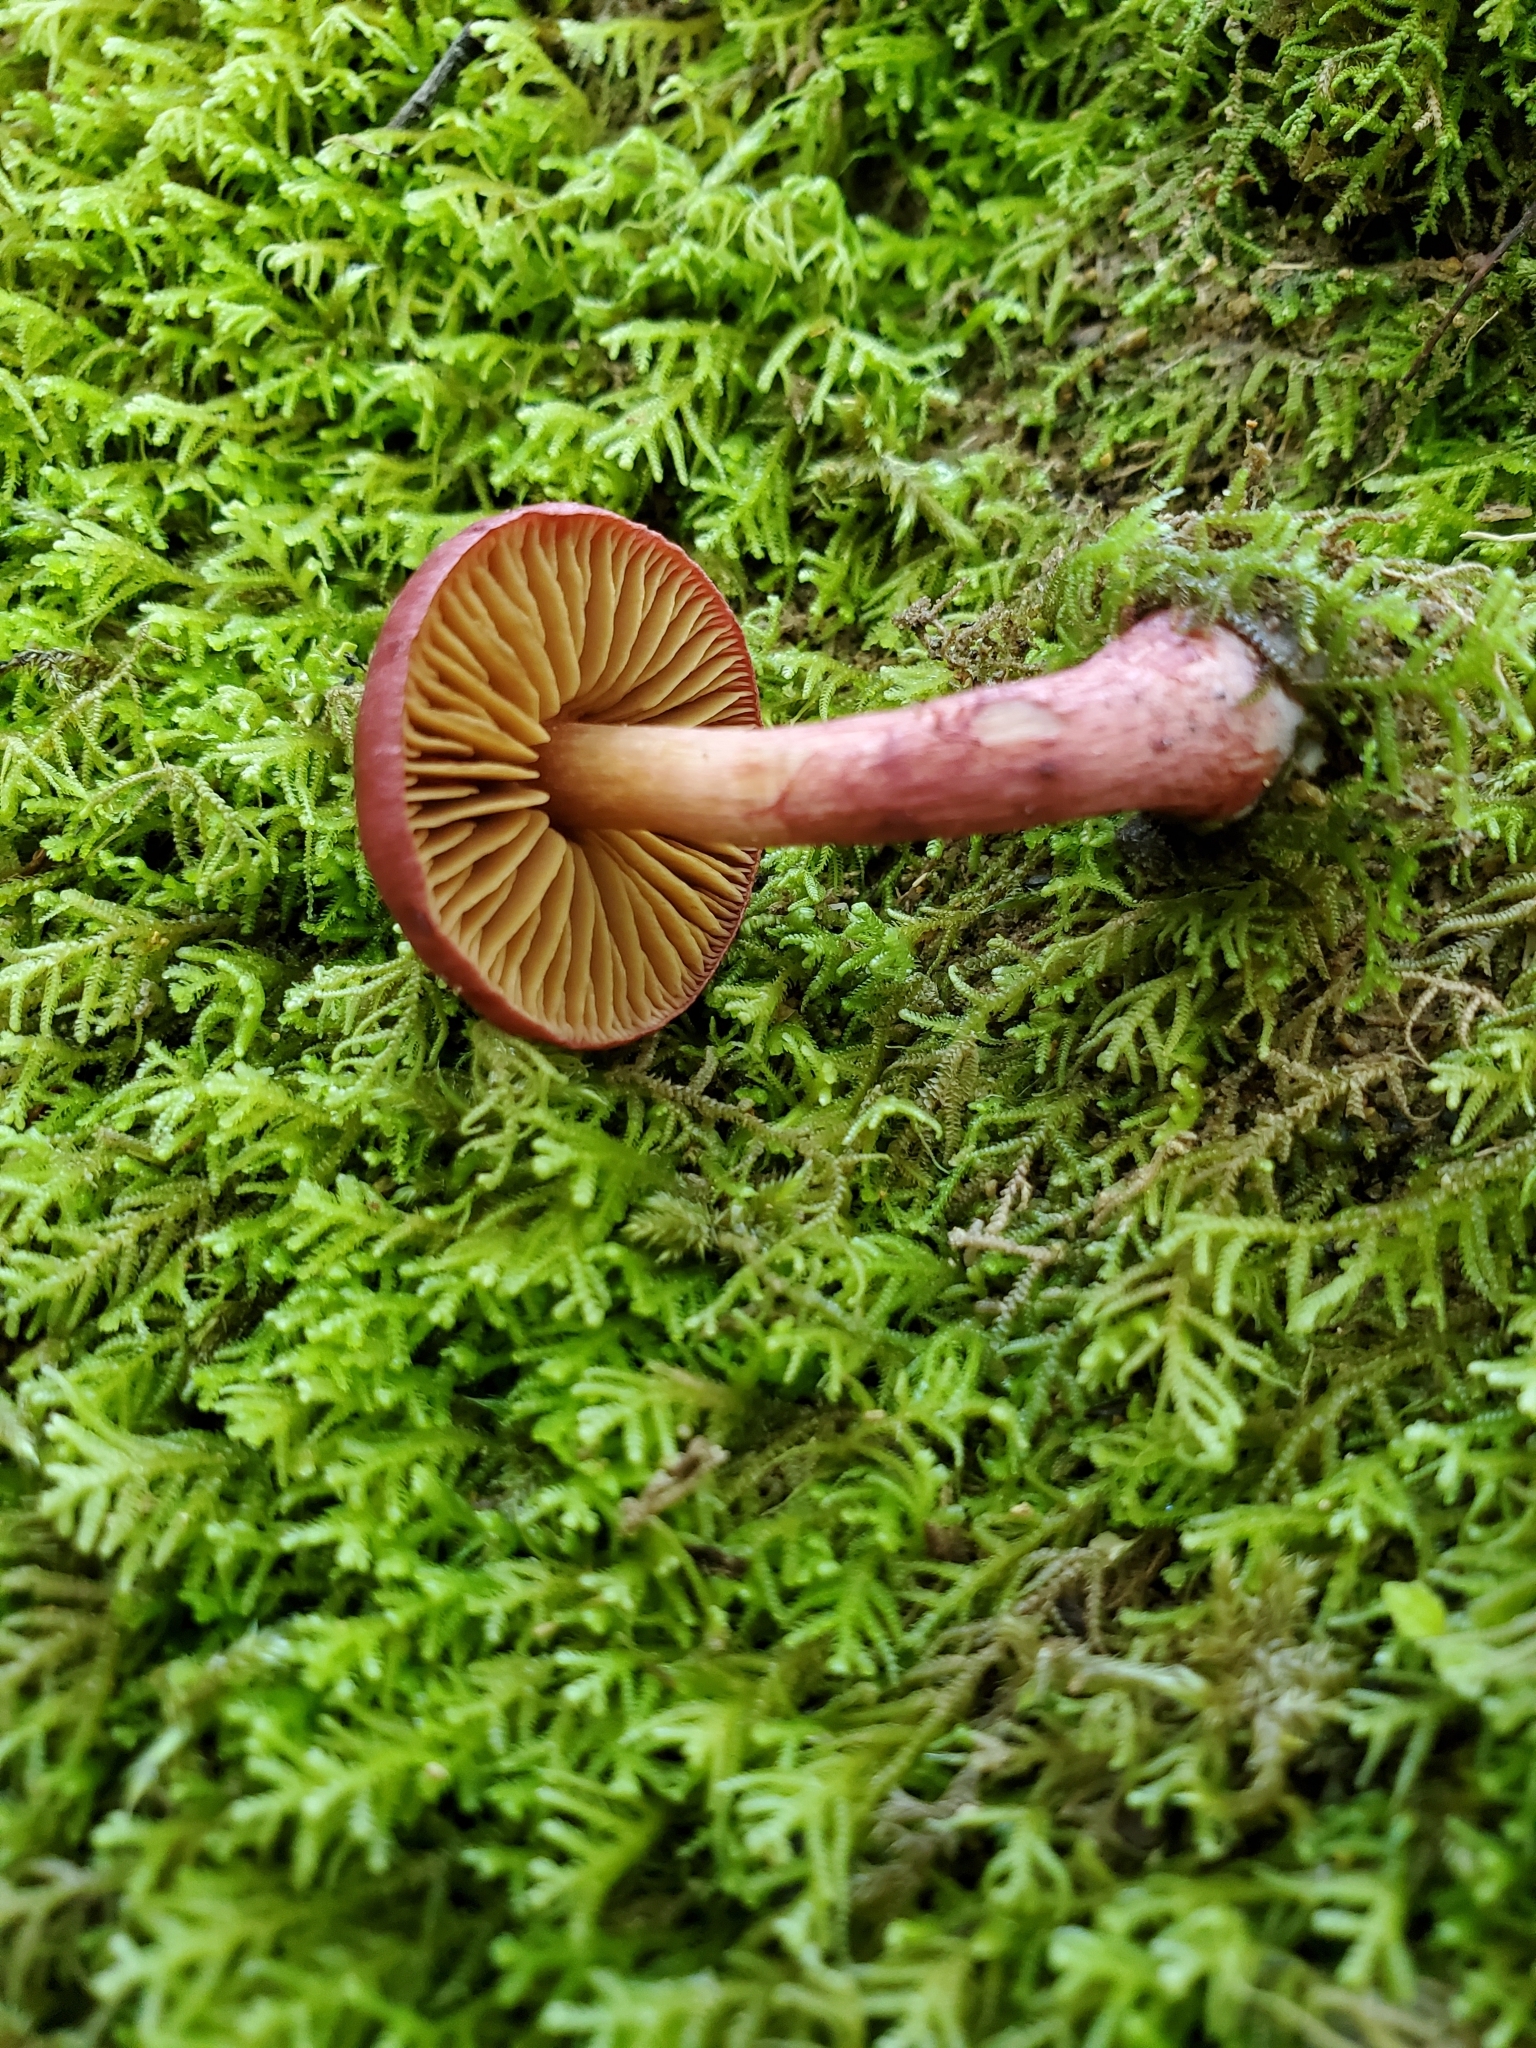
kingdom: Fungi
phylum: Basidiomycota
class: Agaricomycetes
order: Agaricales
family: Cortinariaceae
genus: Cortinarius
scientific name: Cortinarius cardinalis
